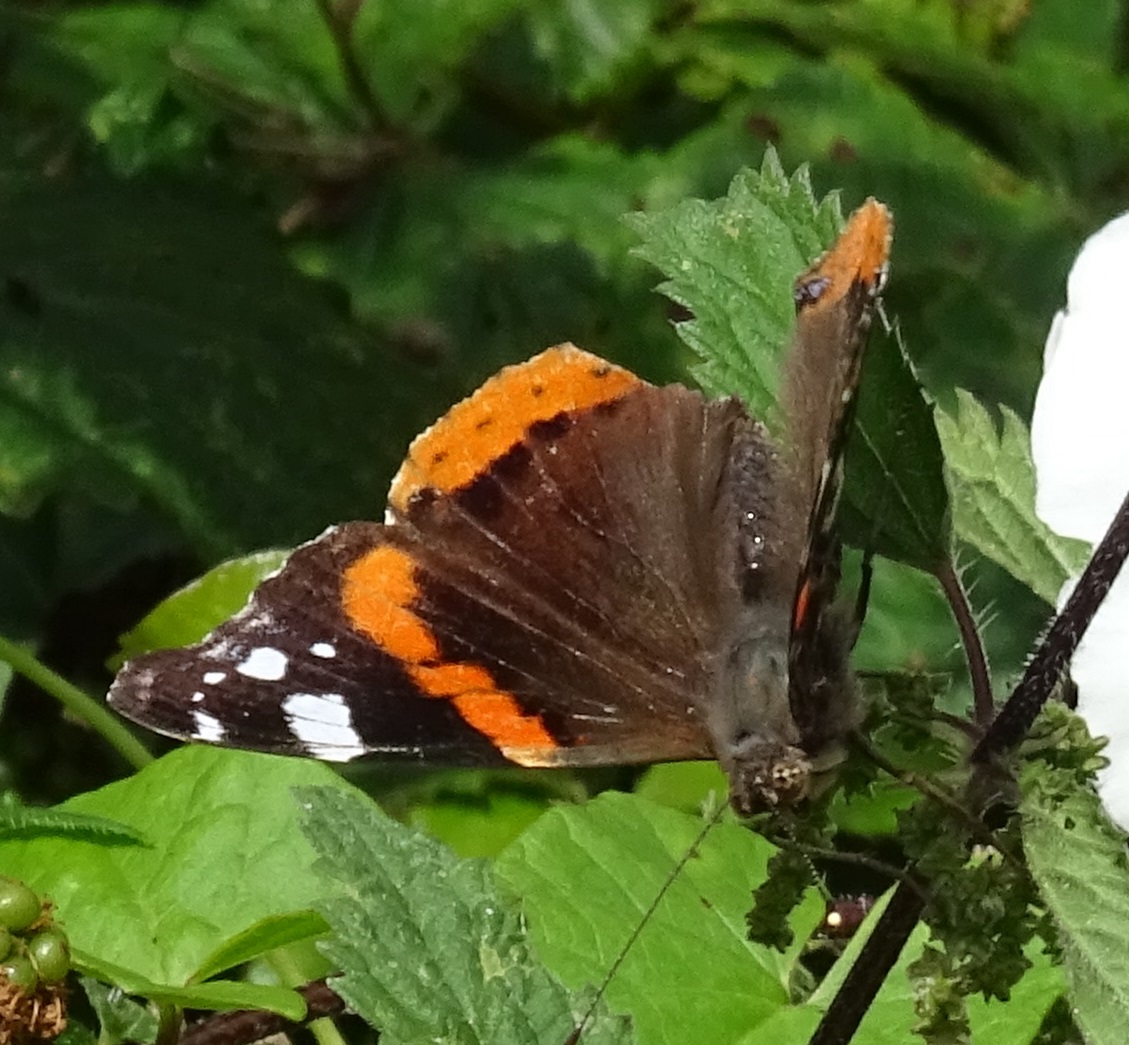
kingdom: Animalia
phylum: Arthropoda
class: Insecta
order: Lepidoptera
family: Nymphalidae
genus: Vanessa
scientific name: Vanessa atalanta
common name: Red admiral
